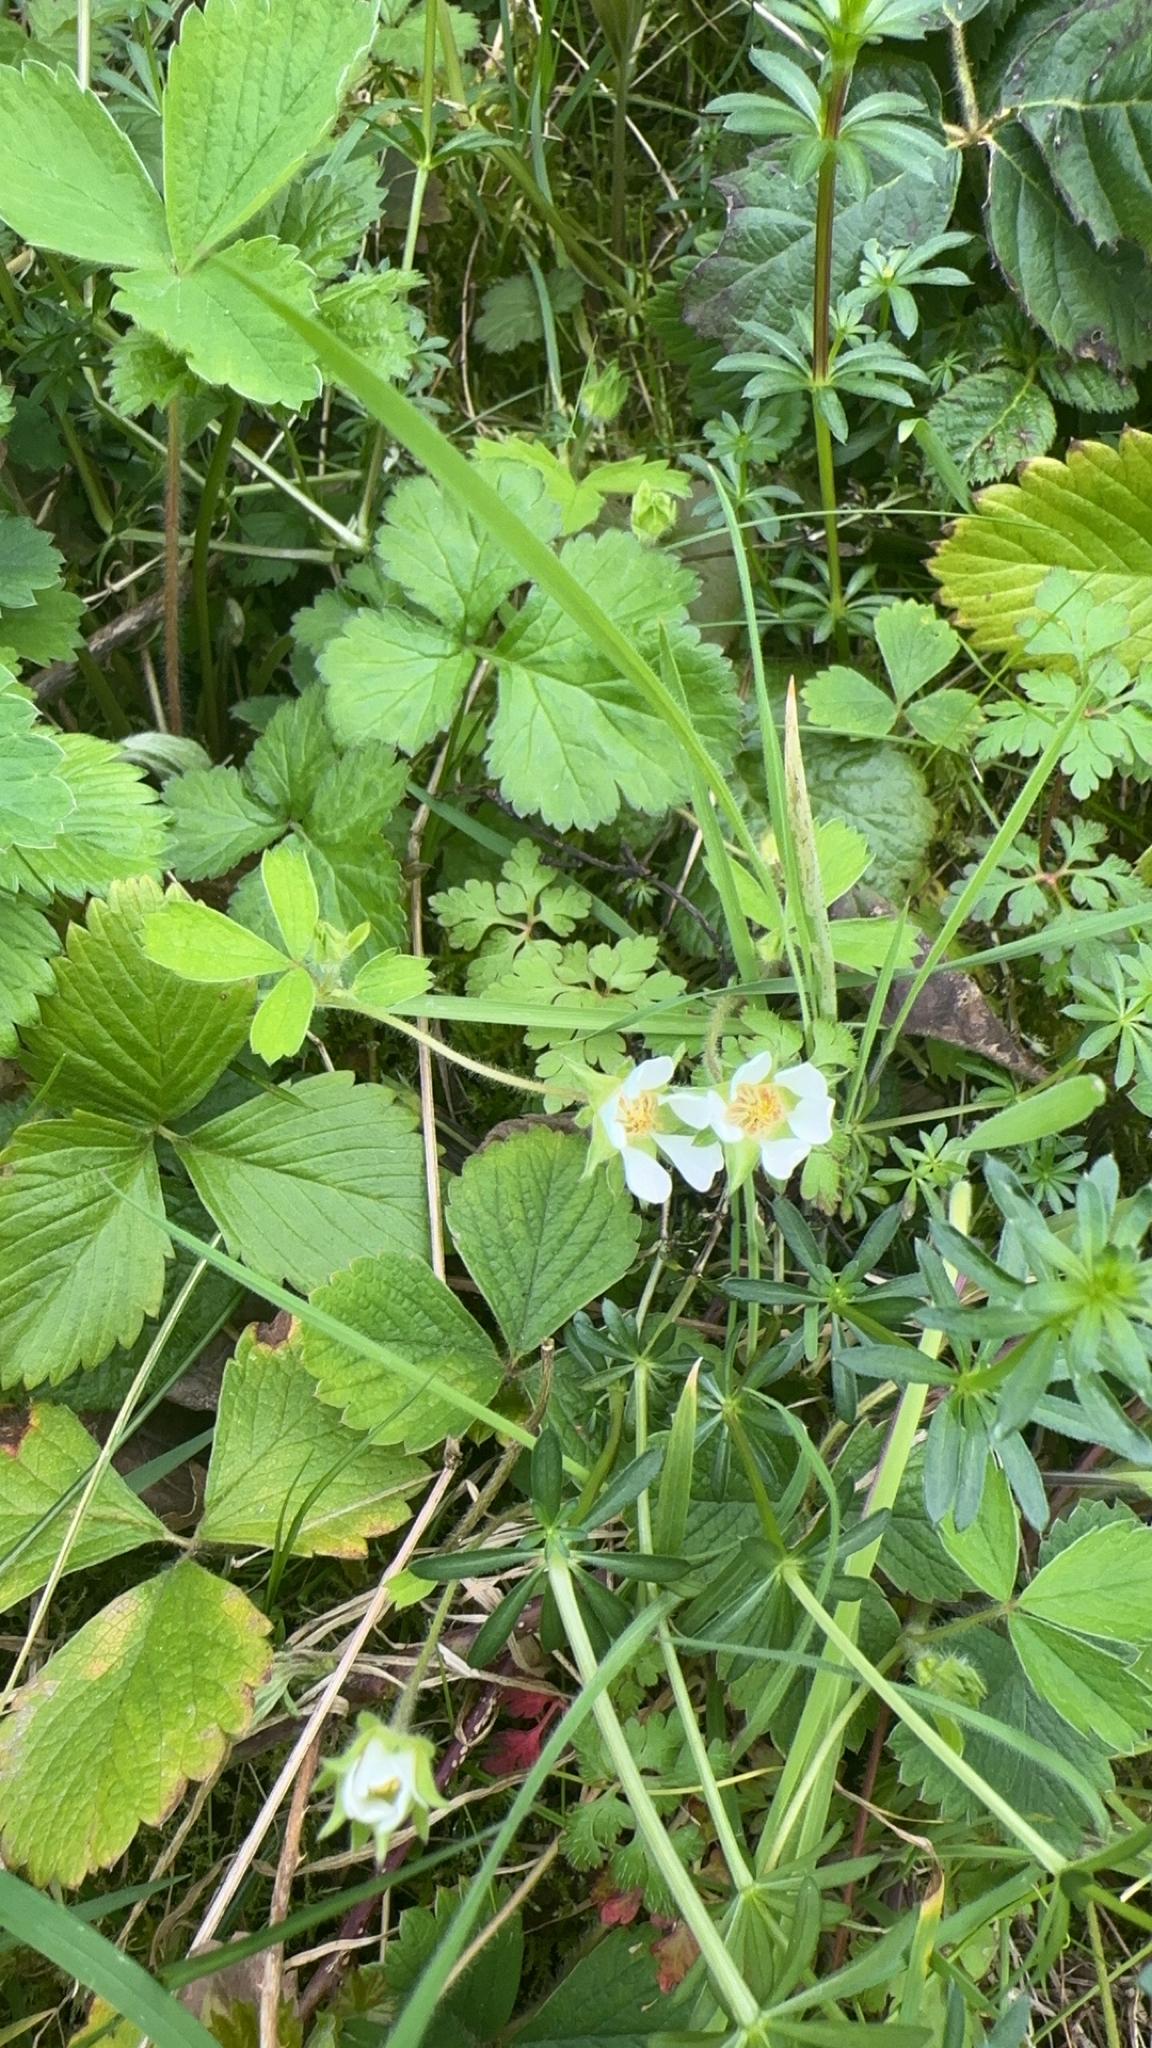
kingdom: Plantae
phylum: Tracheophyta
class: Magnoliopsida
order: Rosales
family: Rosaceae
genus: Potentilla
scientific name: Potentilla sterilis
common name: Barren strawberry
